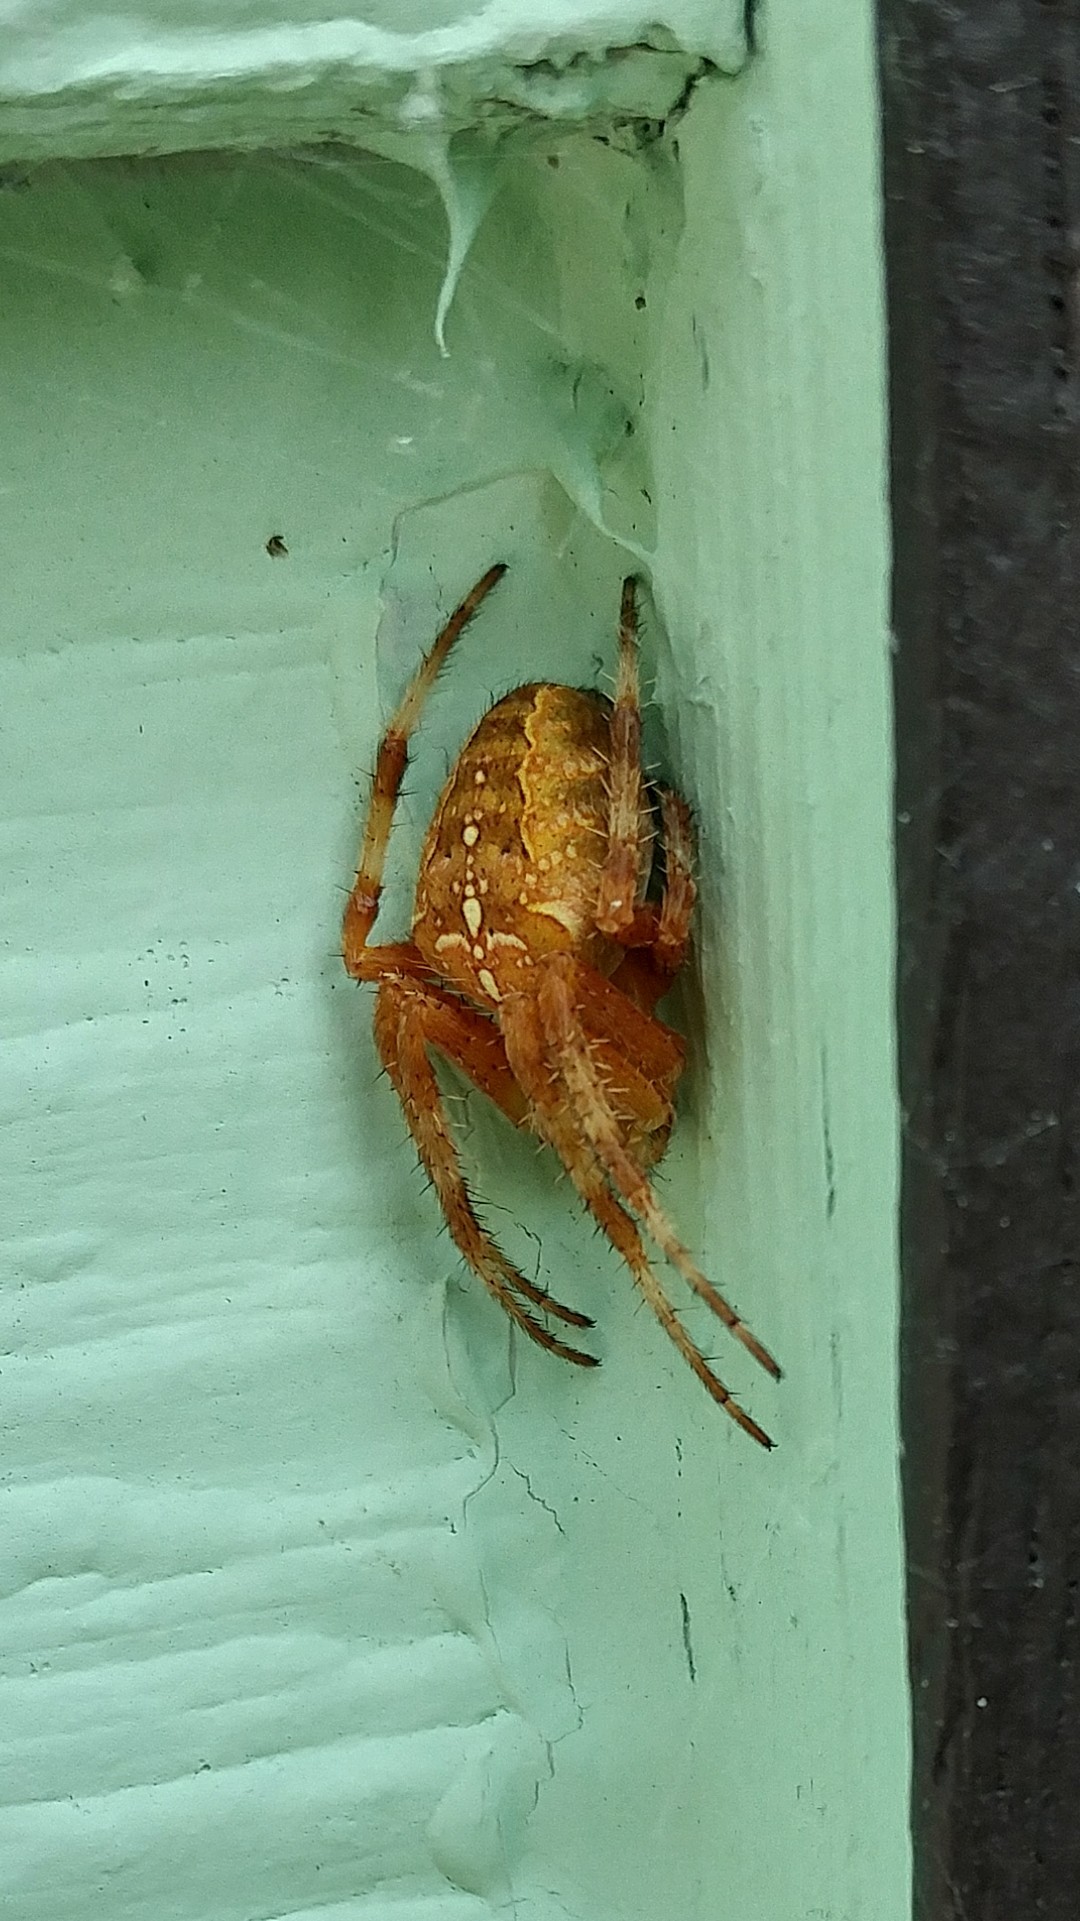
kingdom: Animalia
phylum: Arthropoda
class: Arachnida
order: Araneae
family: Araneidae
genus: Araneus
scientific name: Araneus diadematus
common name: Cross orbweaver
